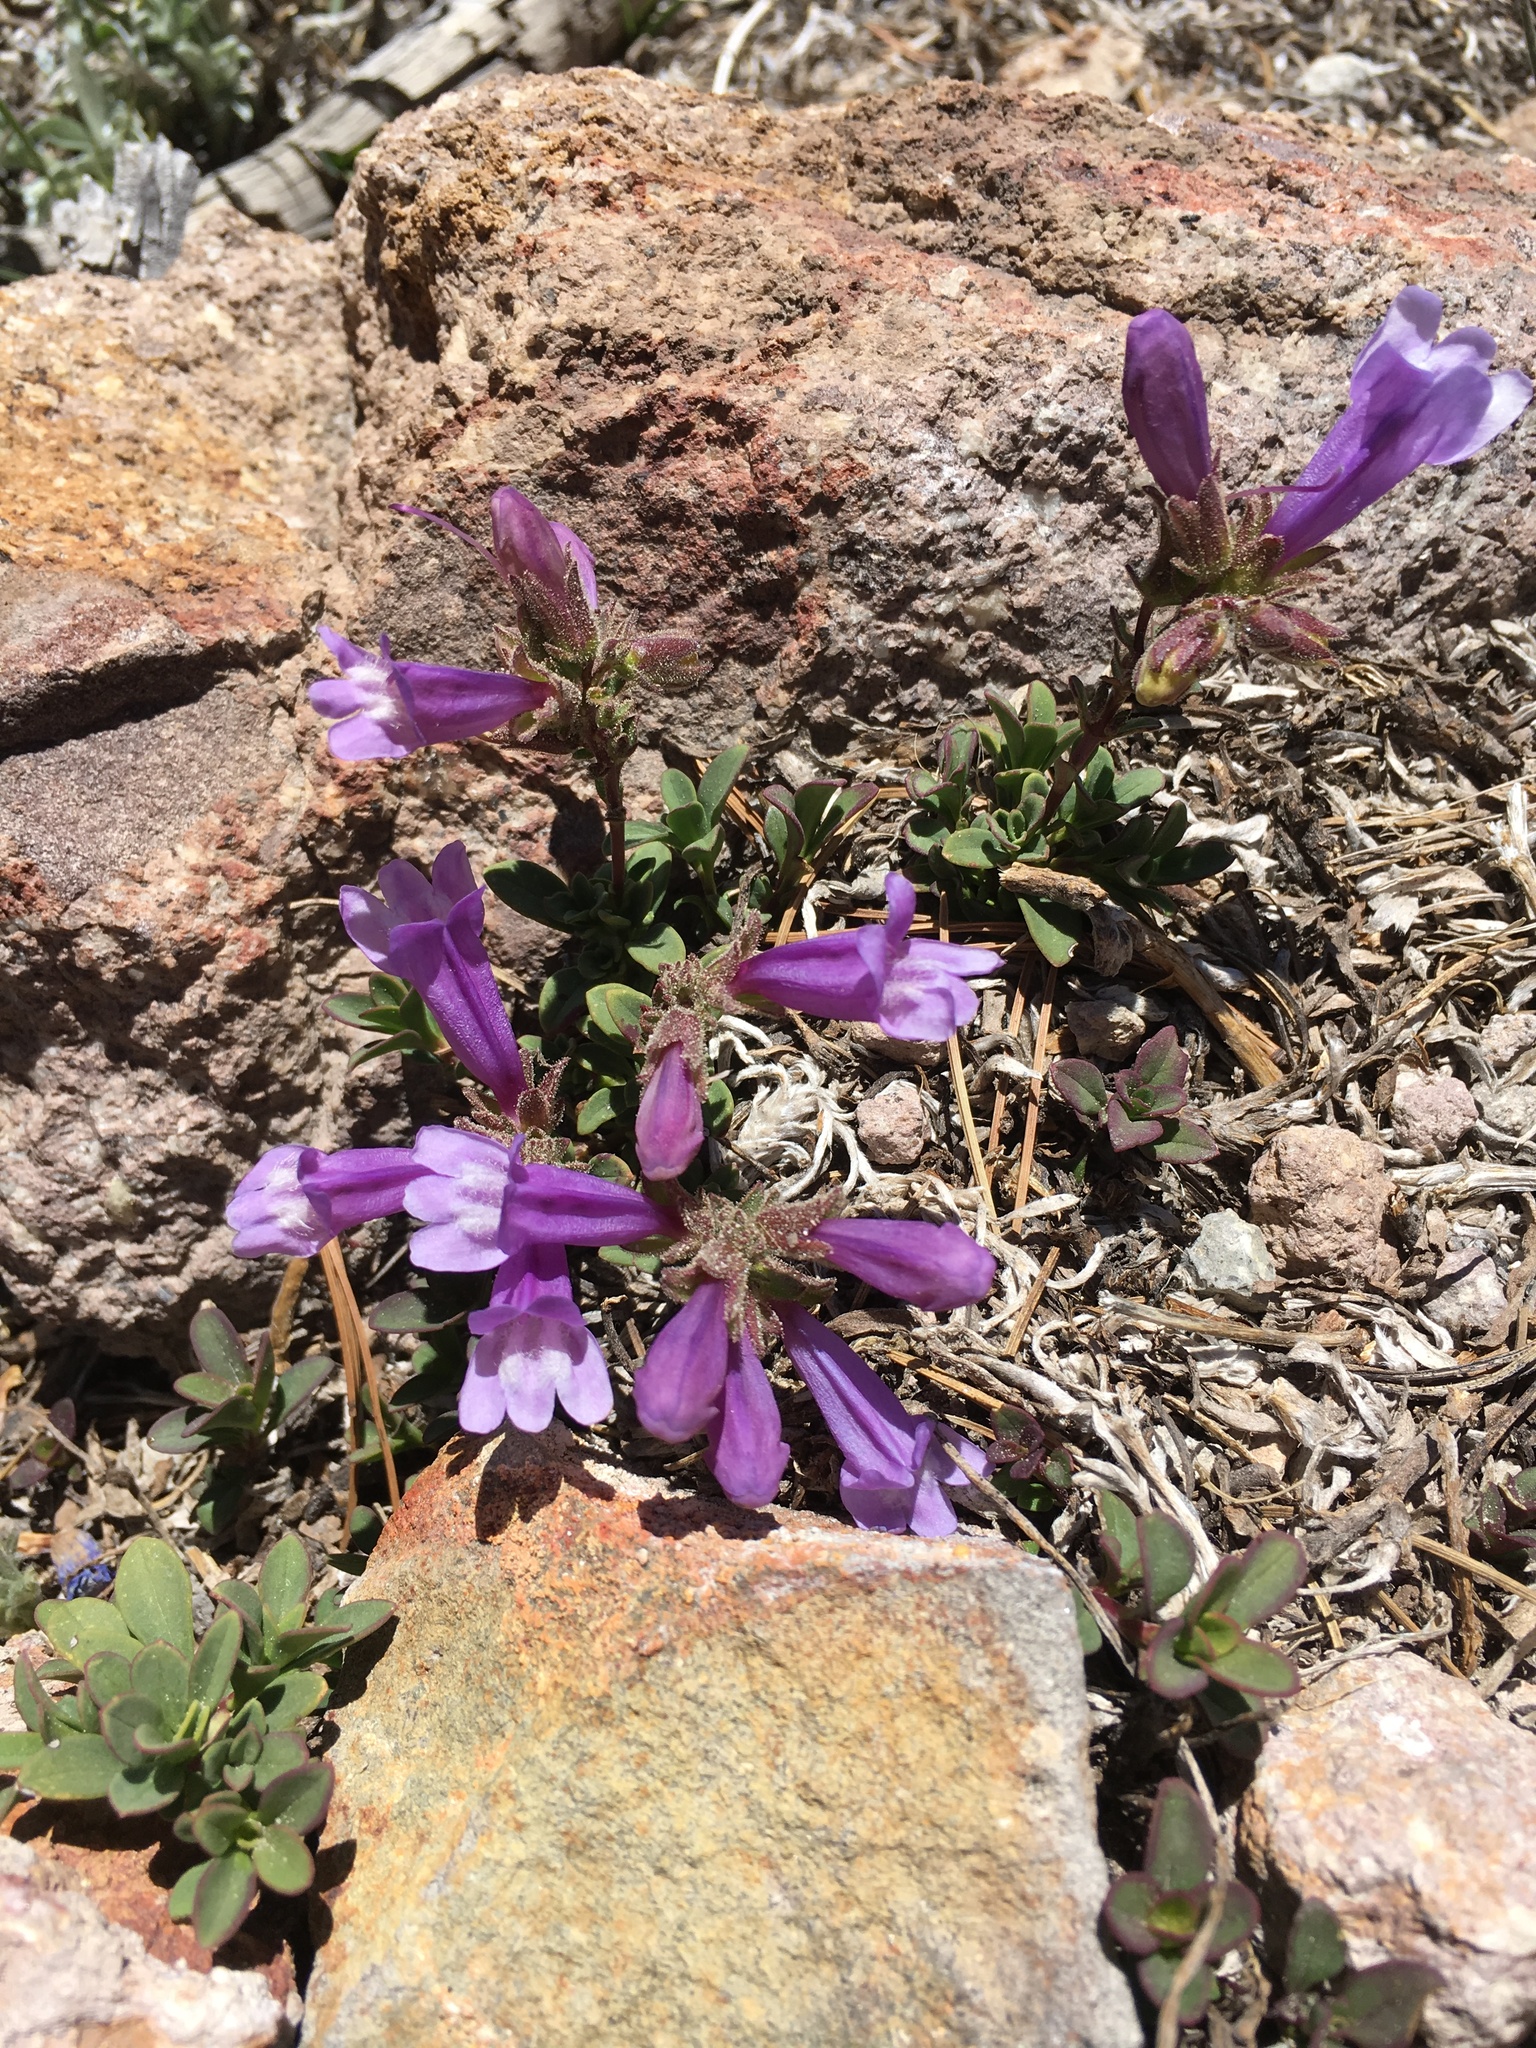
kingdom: Plantae
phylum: Tracheophyta
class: Magnoliopsida
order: Lamiales
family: Plantaginaceae
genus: Penstemon
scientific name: Penstemon davidsonii
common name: Davidson's penstemon
